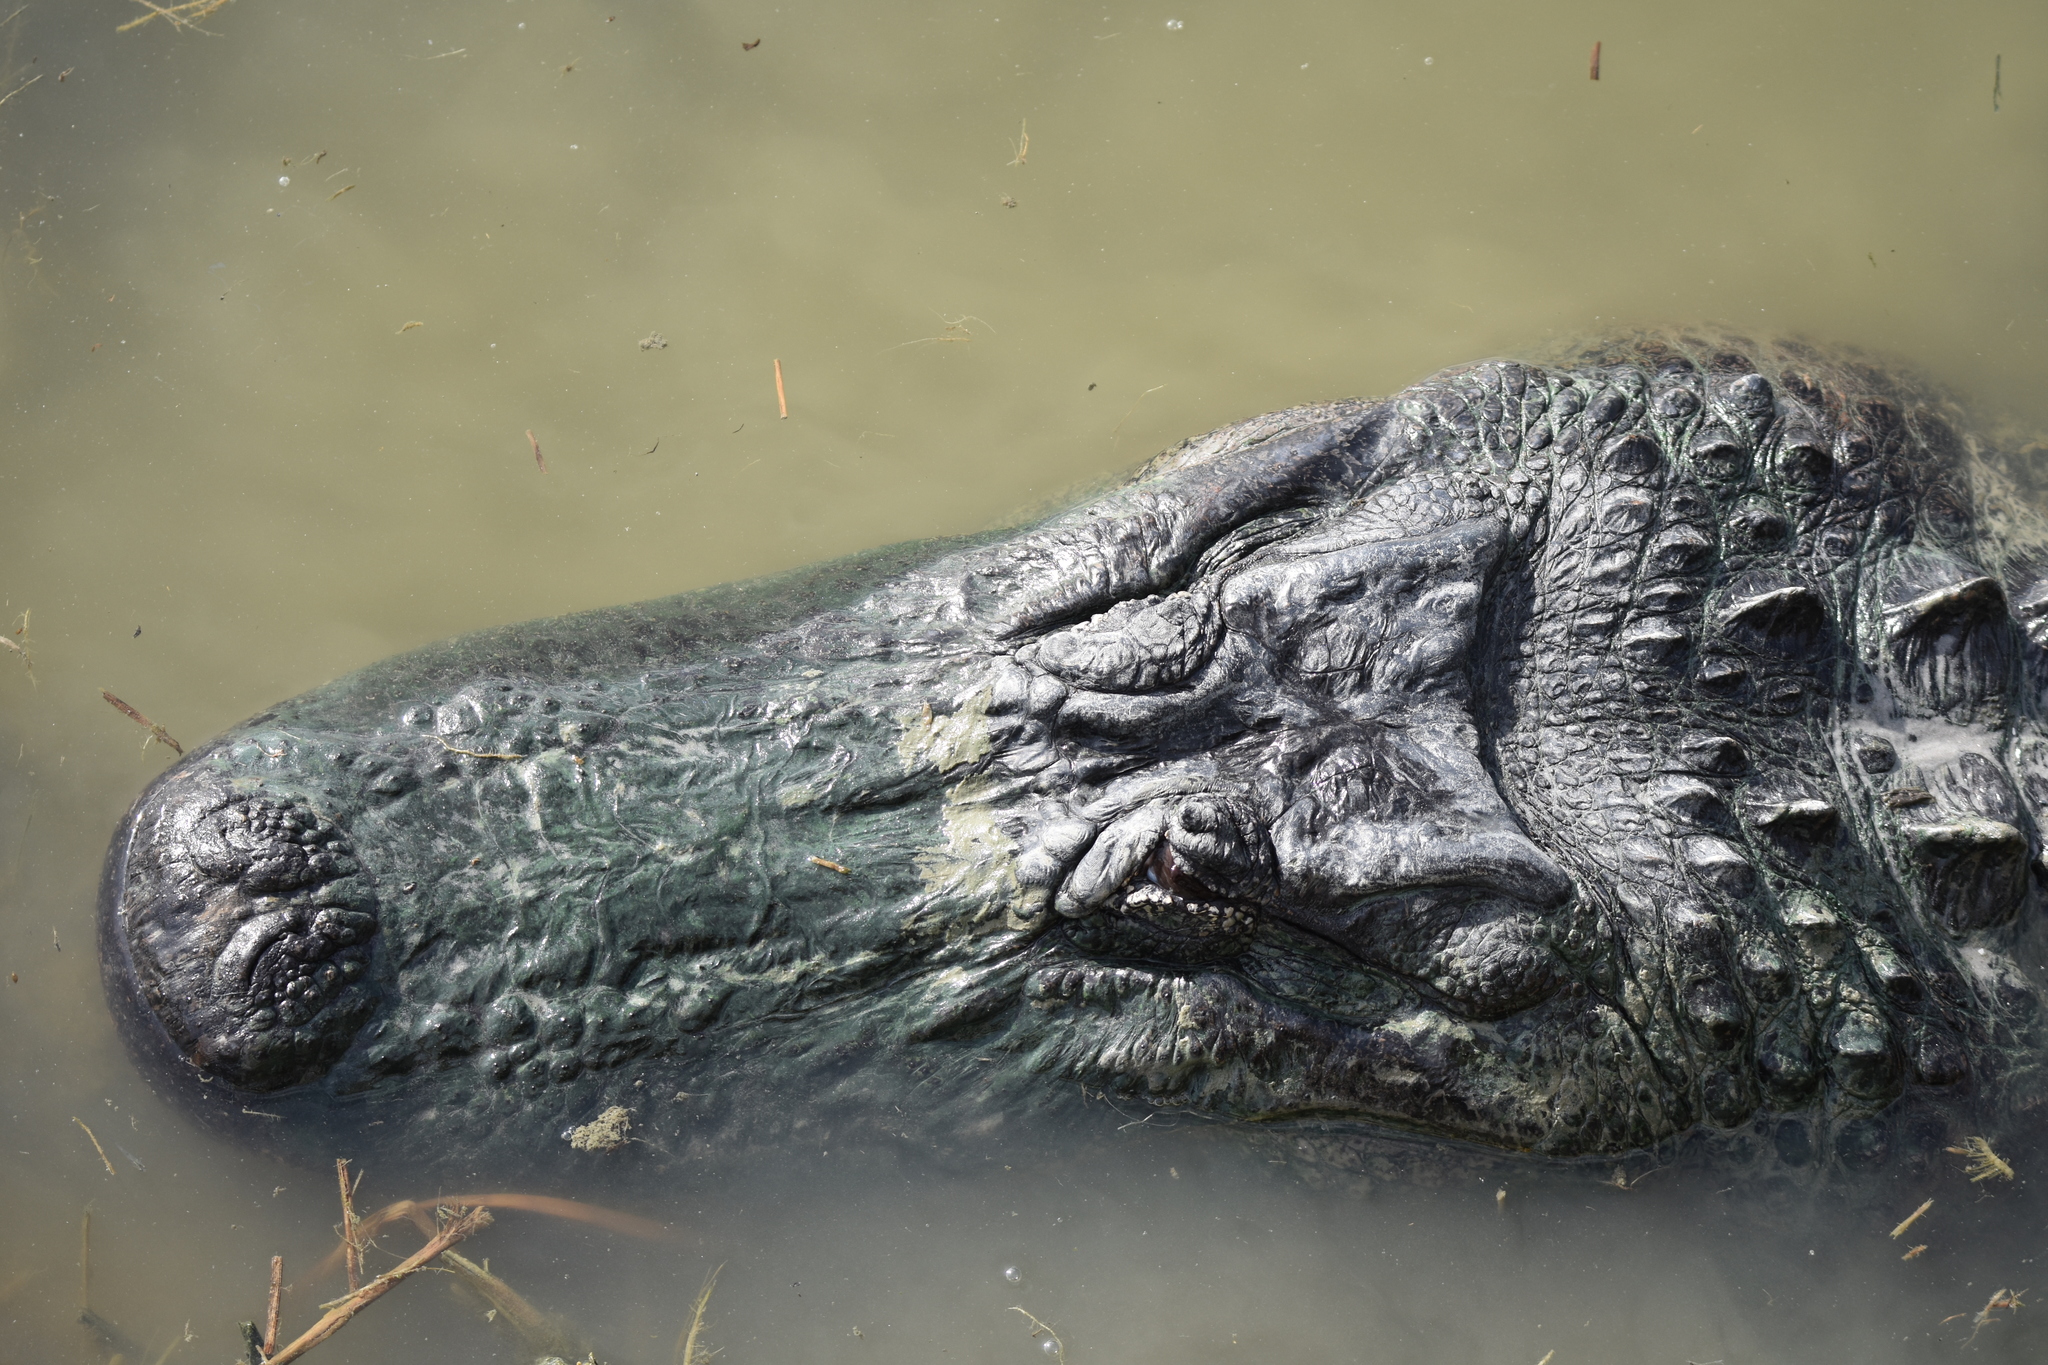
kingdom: Animalia
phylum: Chordata
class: Crocodylia
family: Alligatoridae
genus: Alligator
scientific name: Alligator mississippiensis
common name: American alligator
